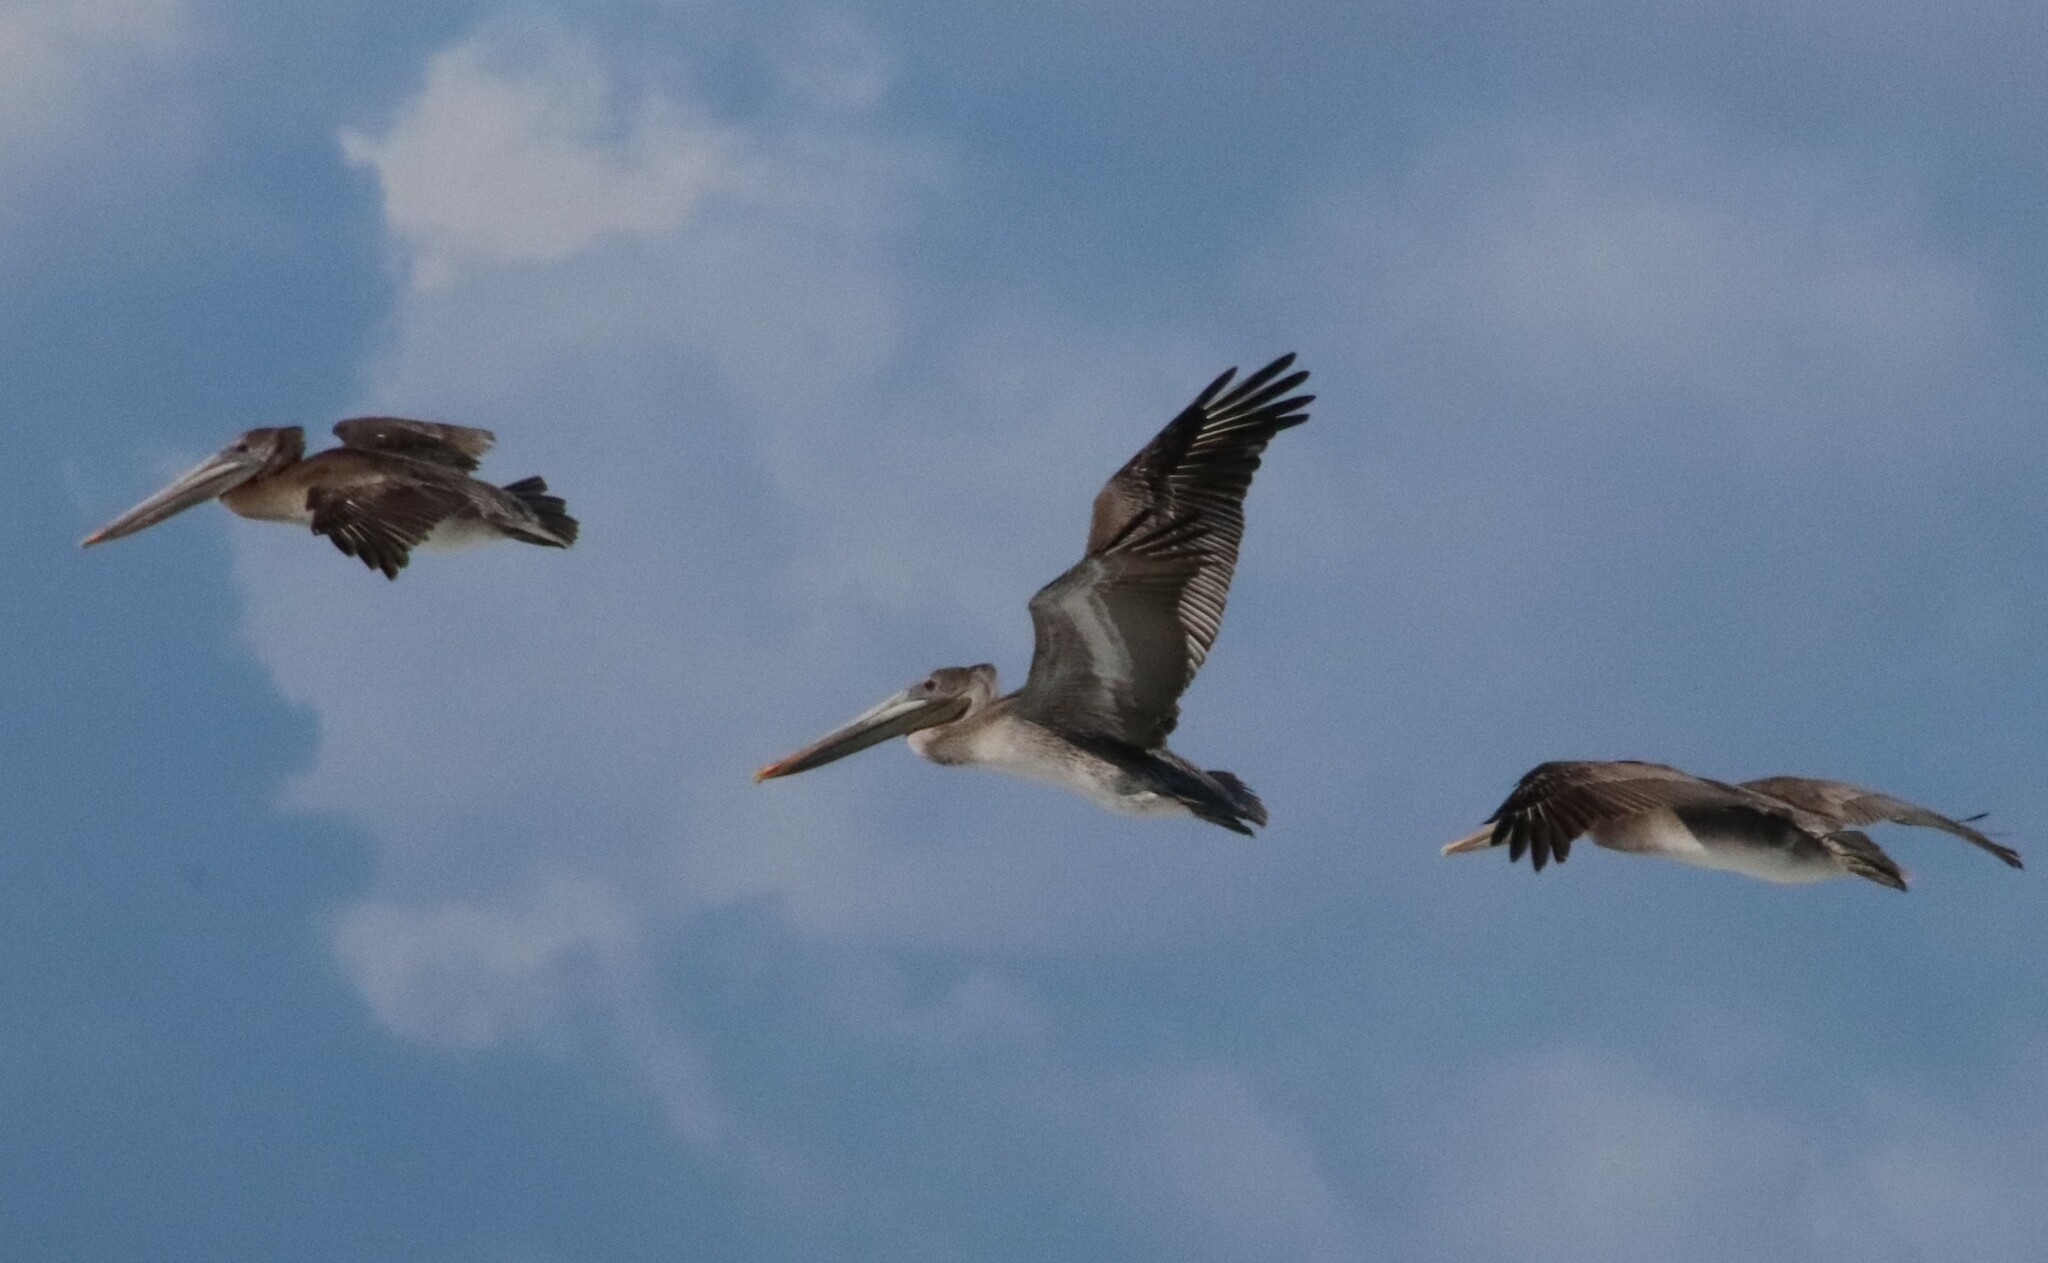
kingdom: Animalia
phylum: Chordata
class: Aves
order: Pelecaniformes
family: Pelecanidae
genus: Pelecanus
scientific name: Pelecanus occidentalis
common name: Brown pelican
